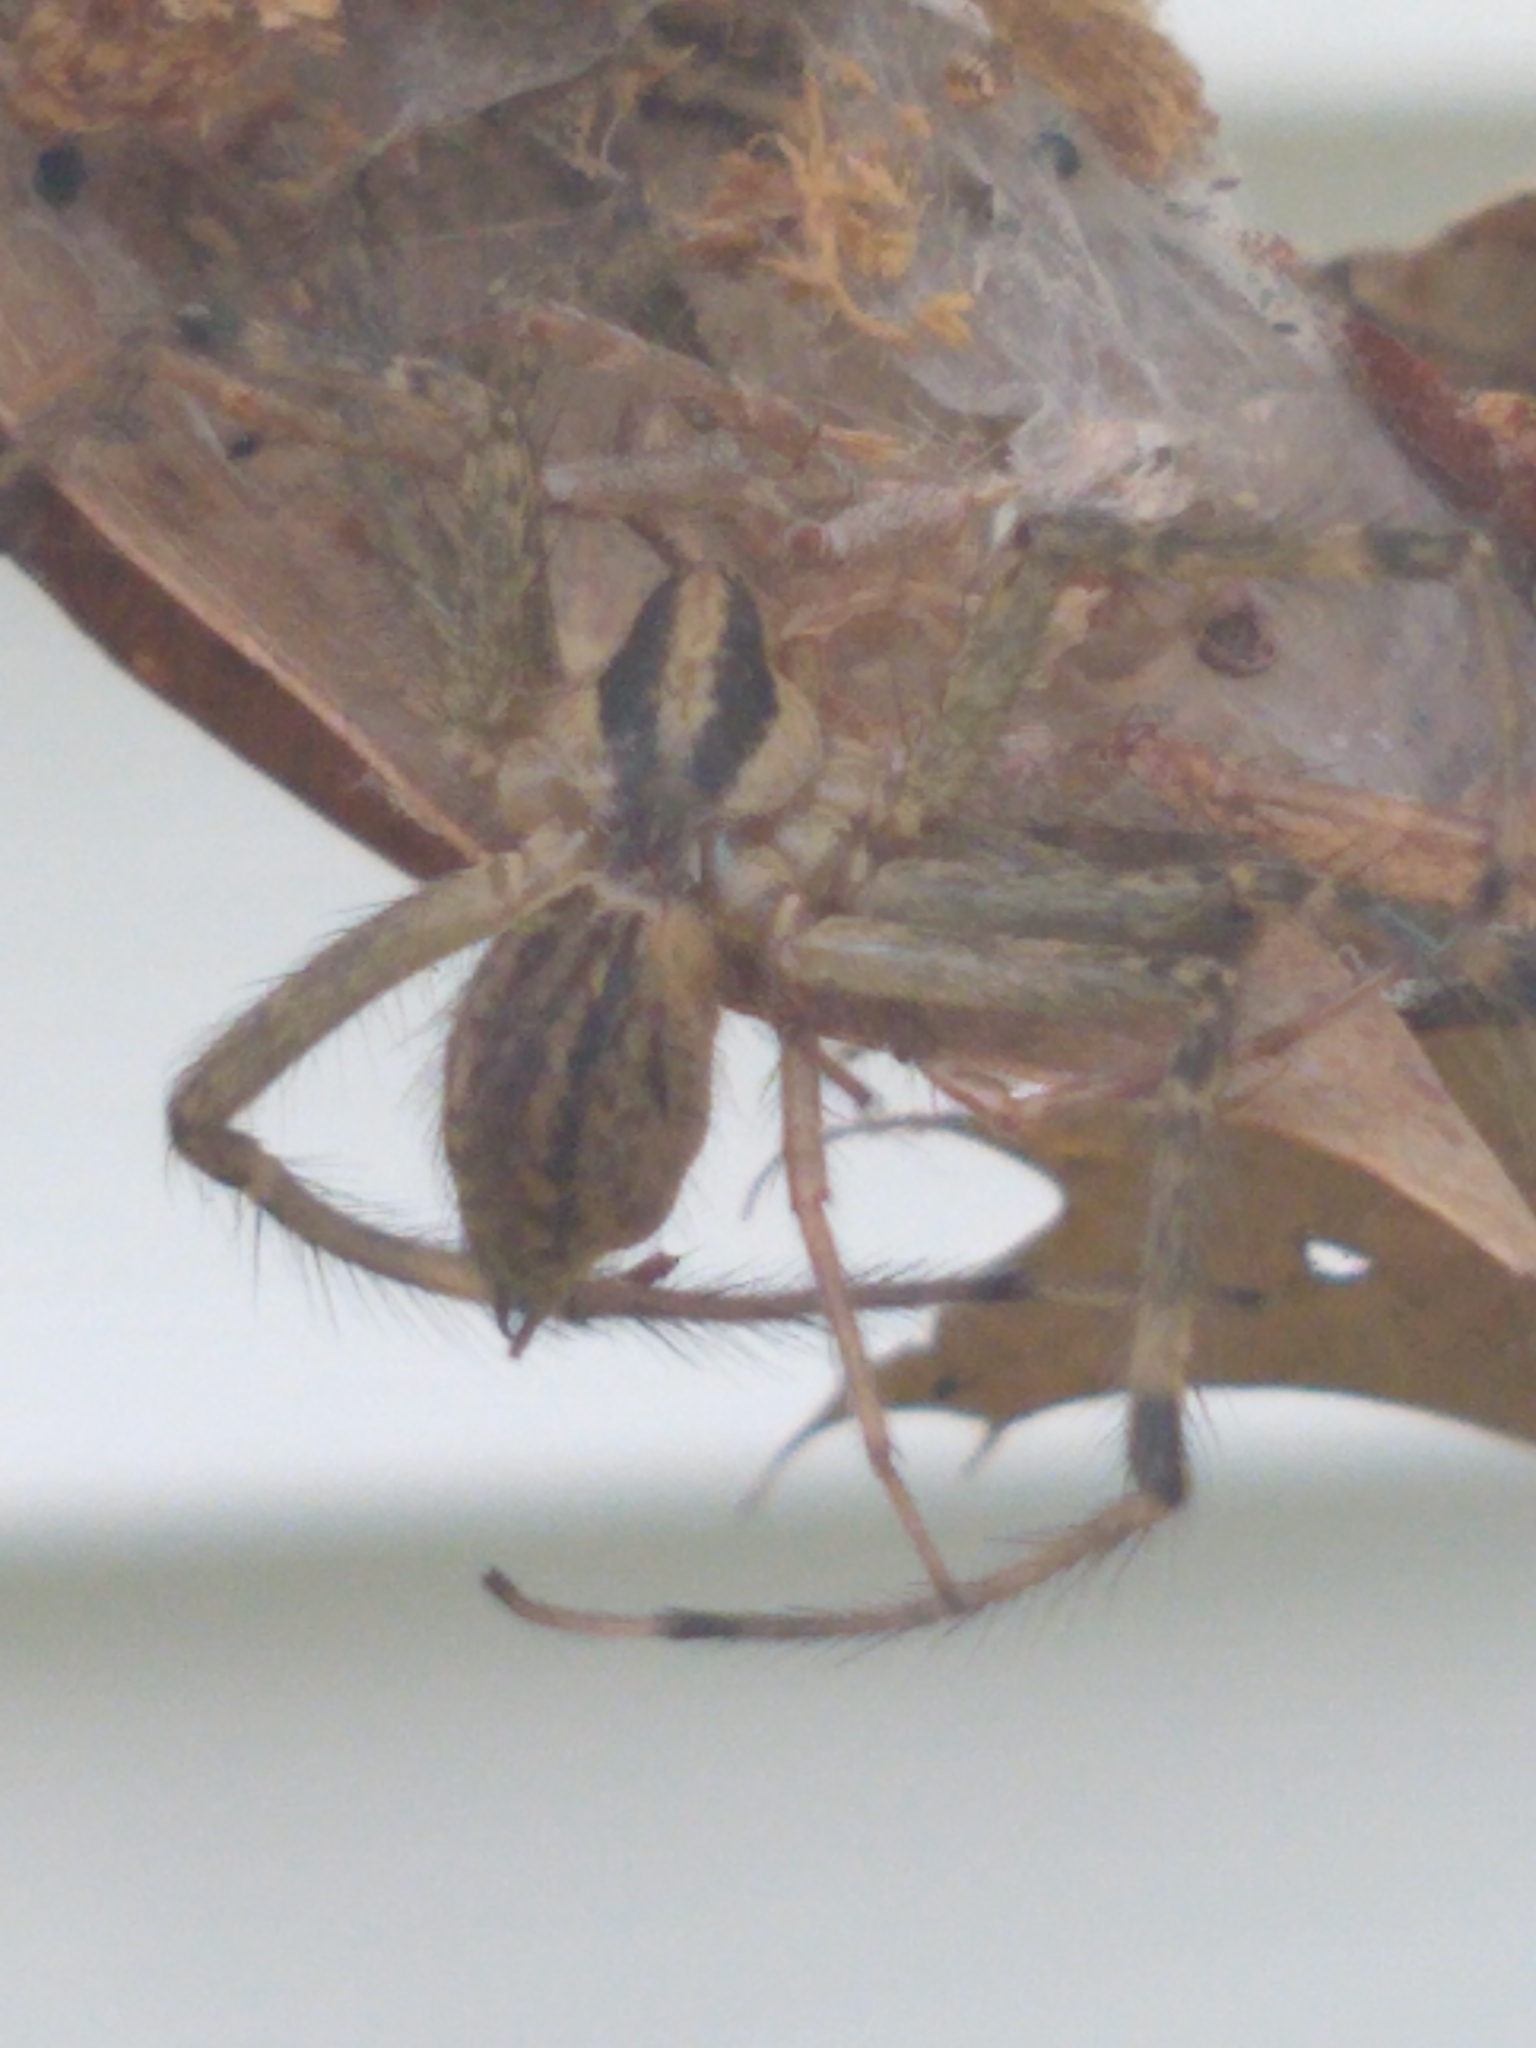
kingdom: Animalia
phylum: Arthropoda
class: Arachnida
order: Araneae
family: Agelenidae
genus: Agelenopsis
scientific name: Agelenopsis
